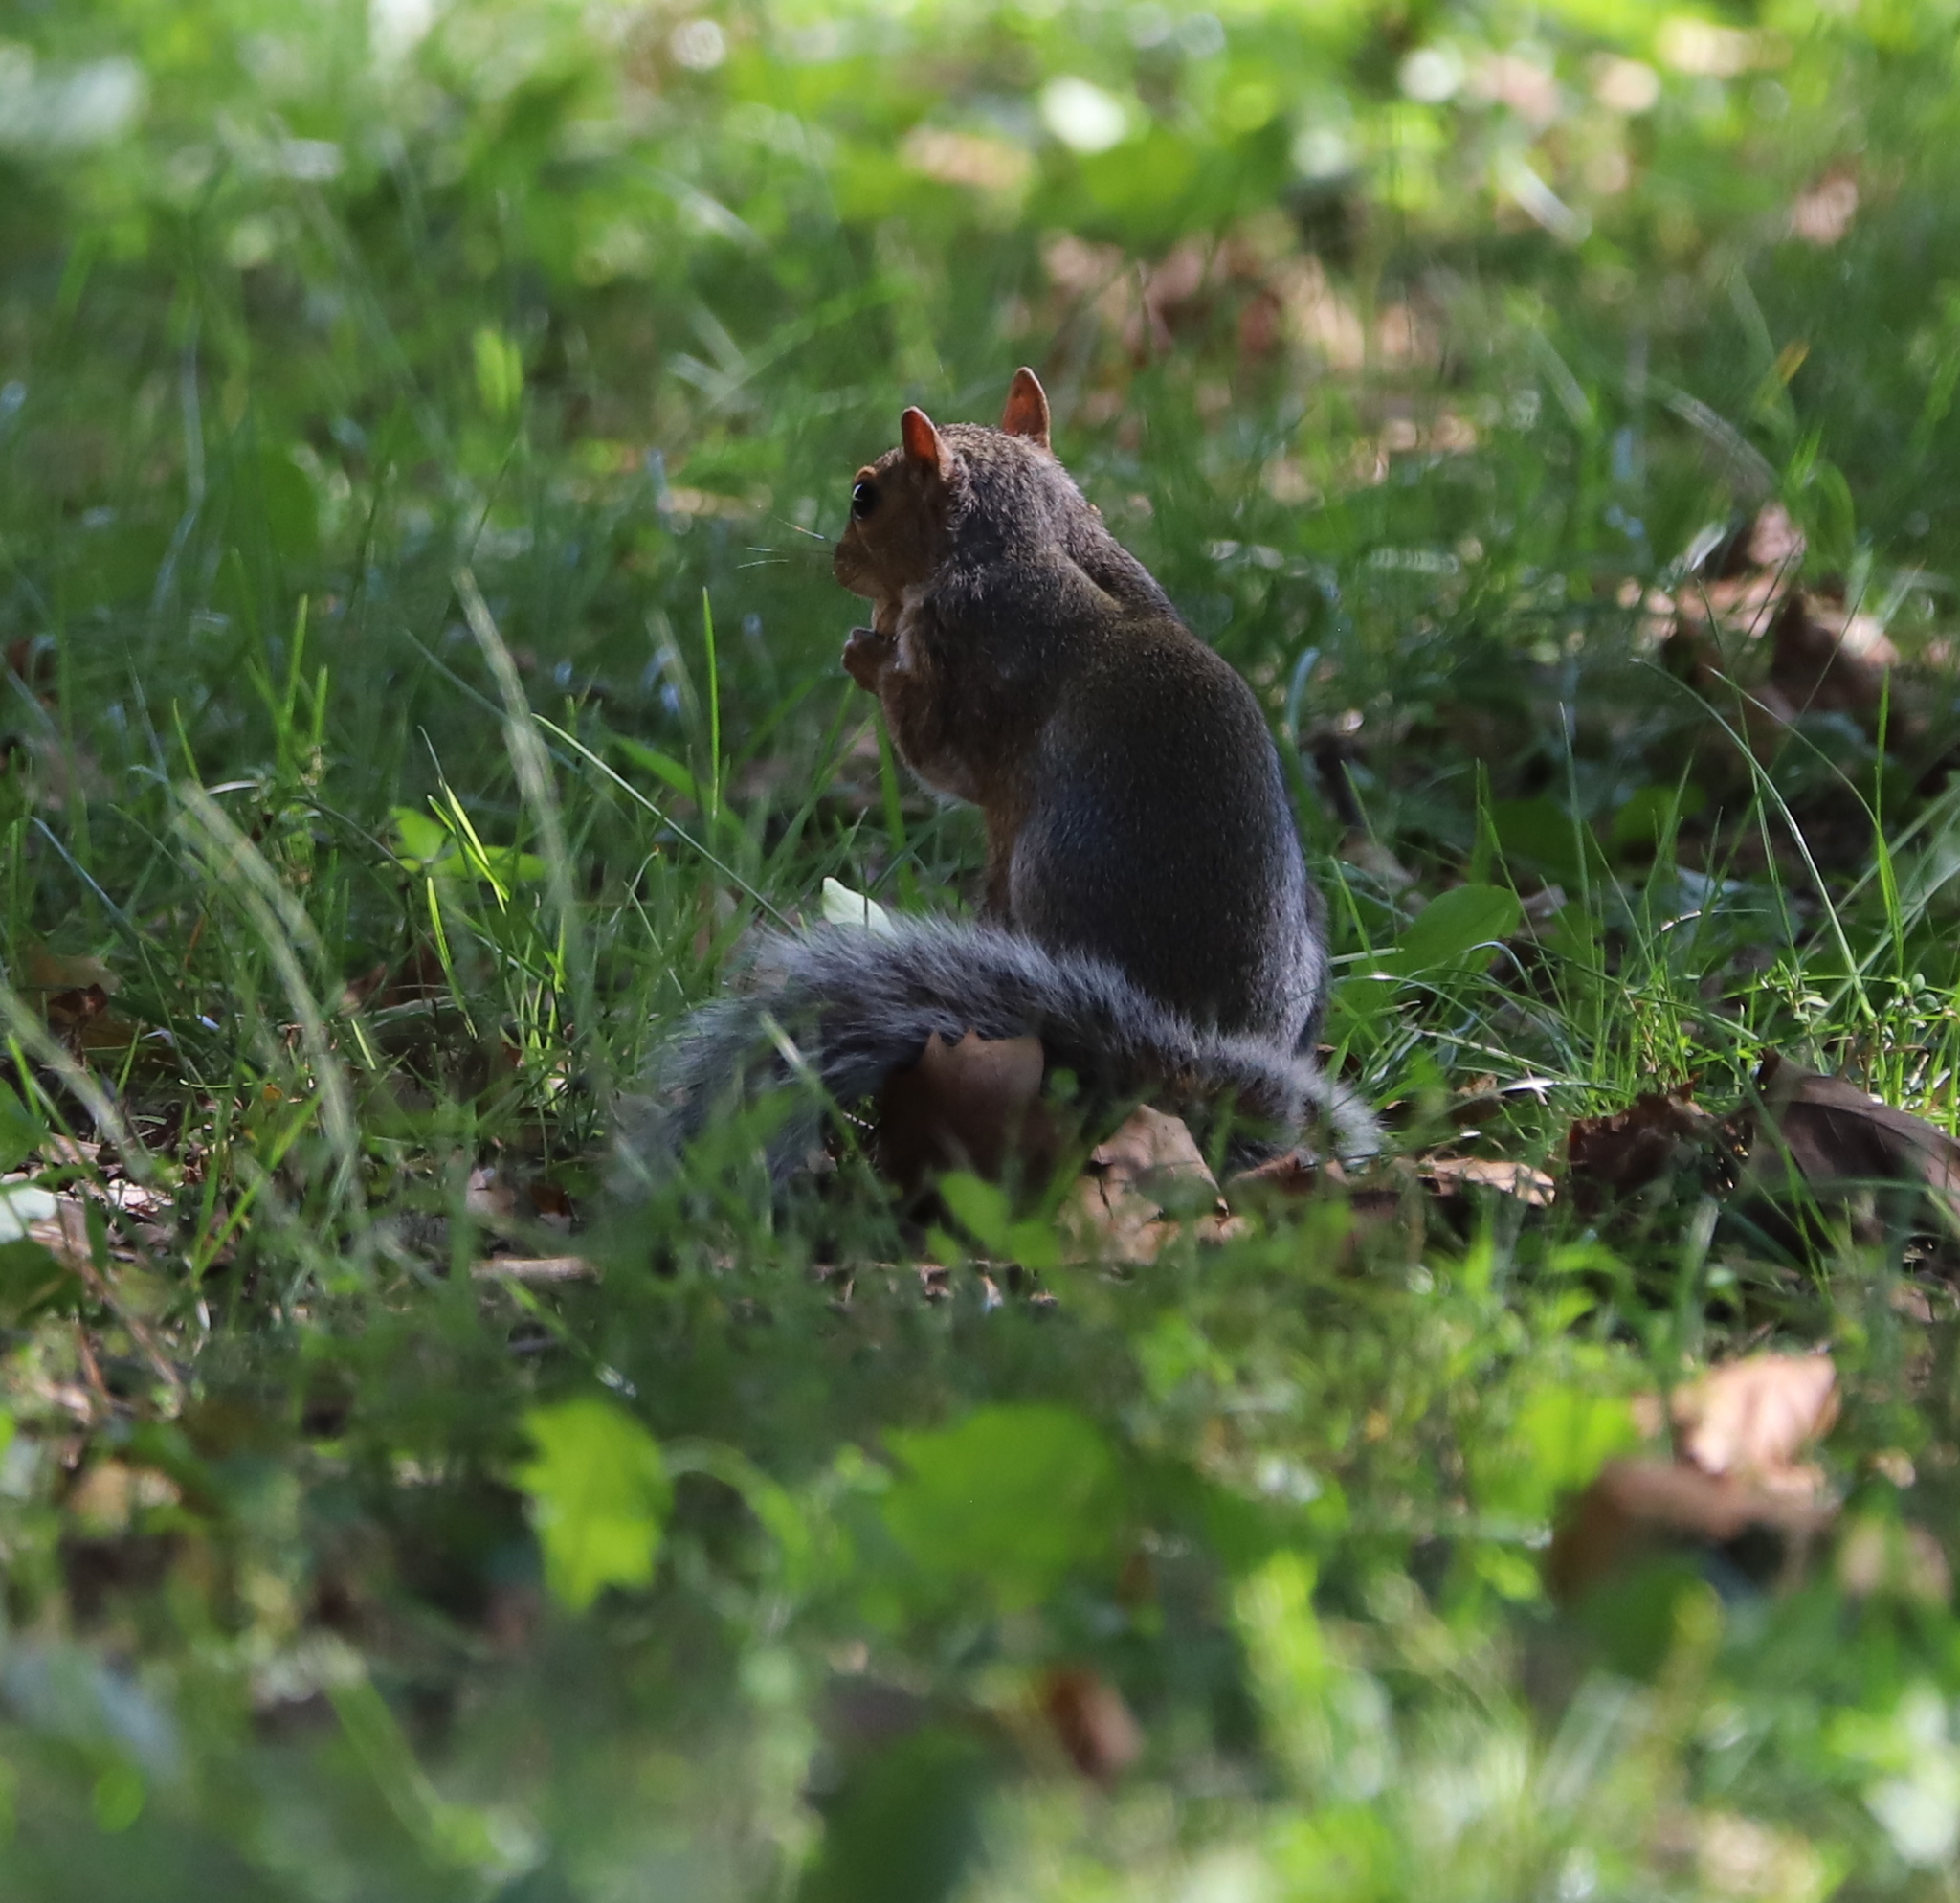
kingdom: Animalia
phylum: Chordata
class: Mammalia
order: Rodentia
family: Sciuridae
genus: Sciurus
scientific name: Sciurus carolinensis
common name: Eastern gray squirrel
